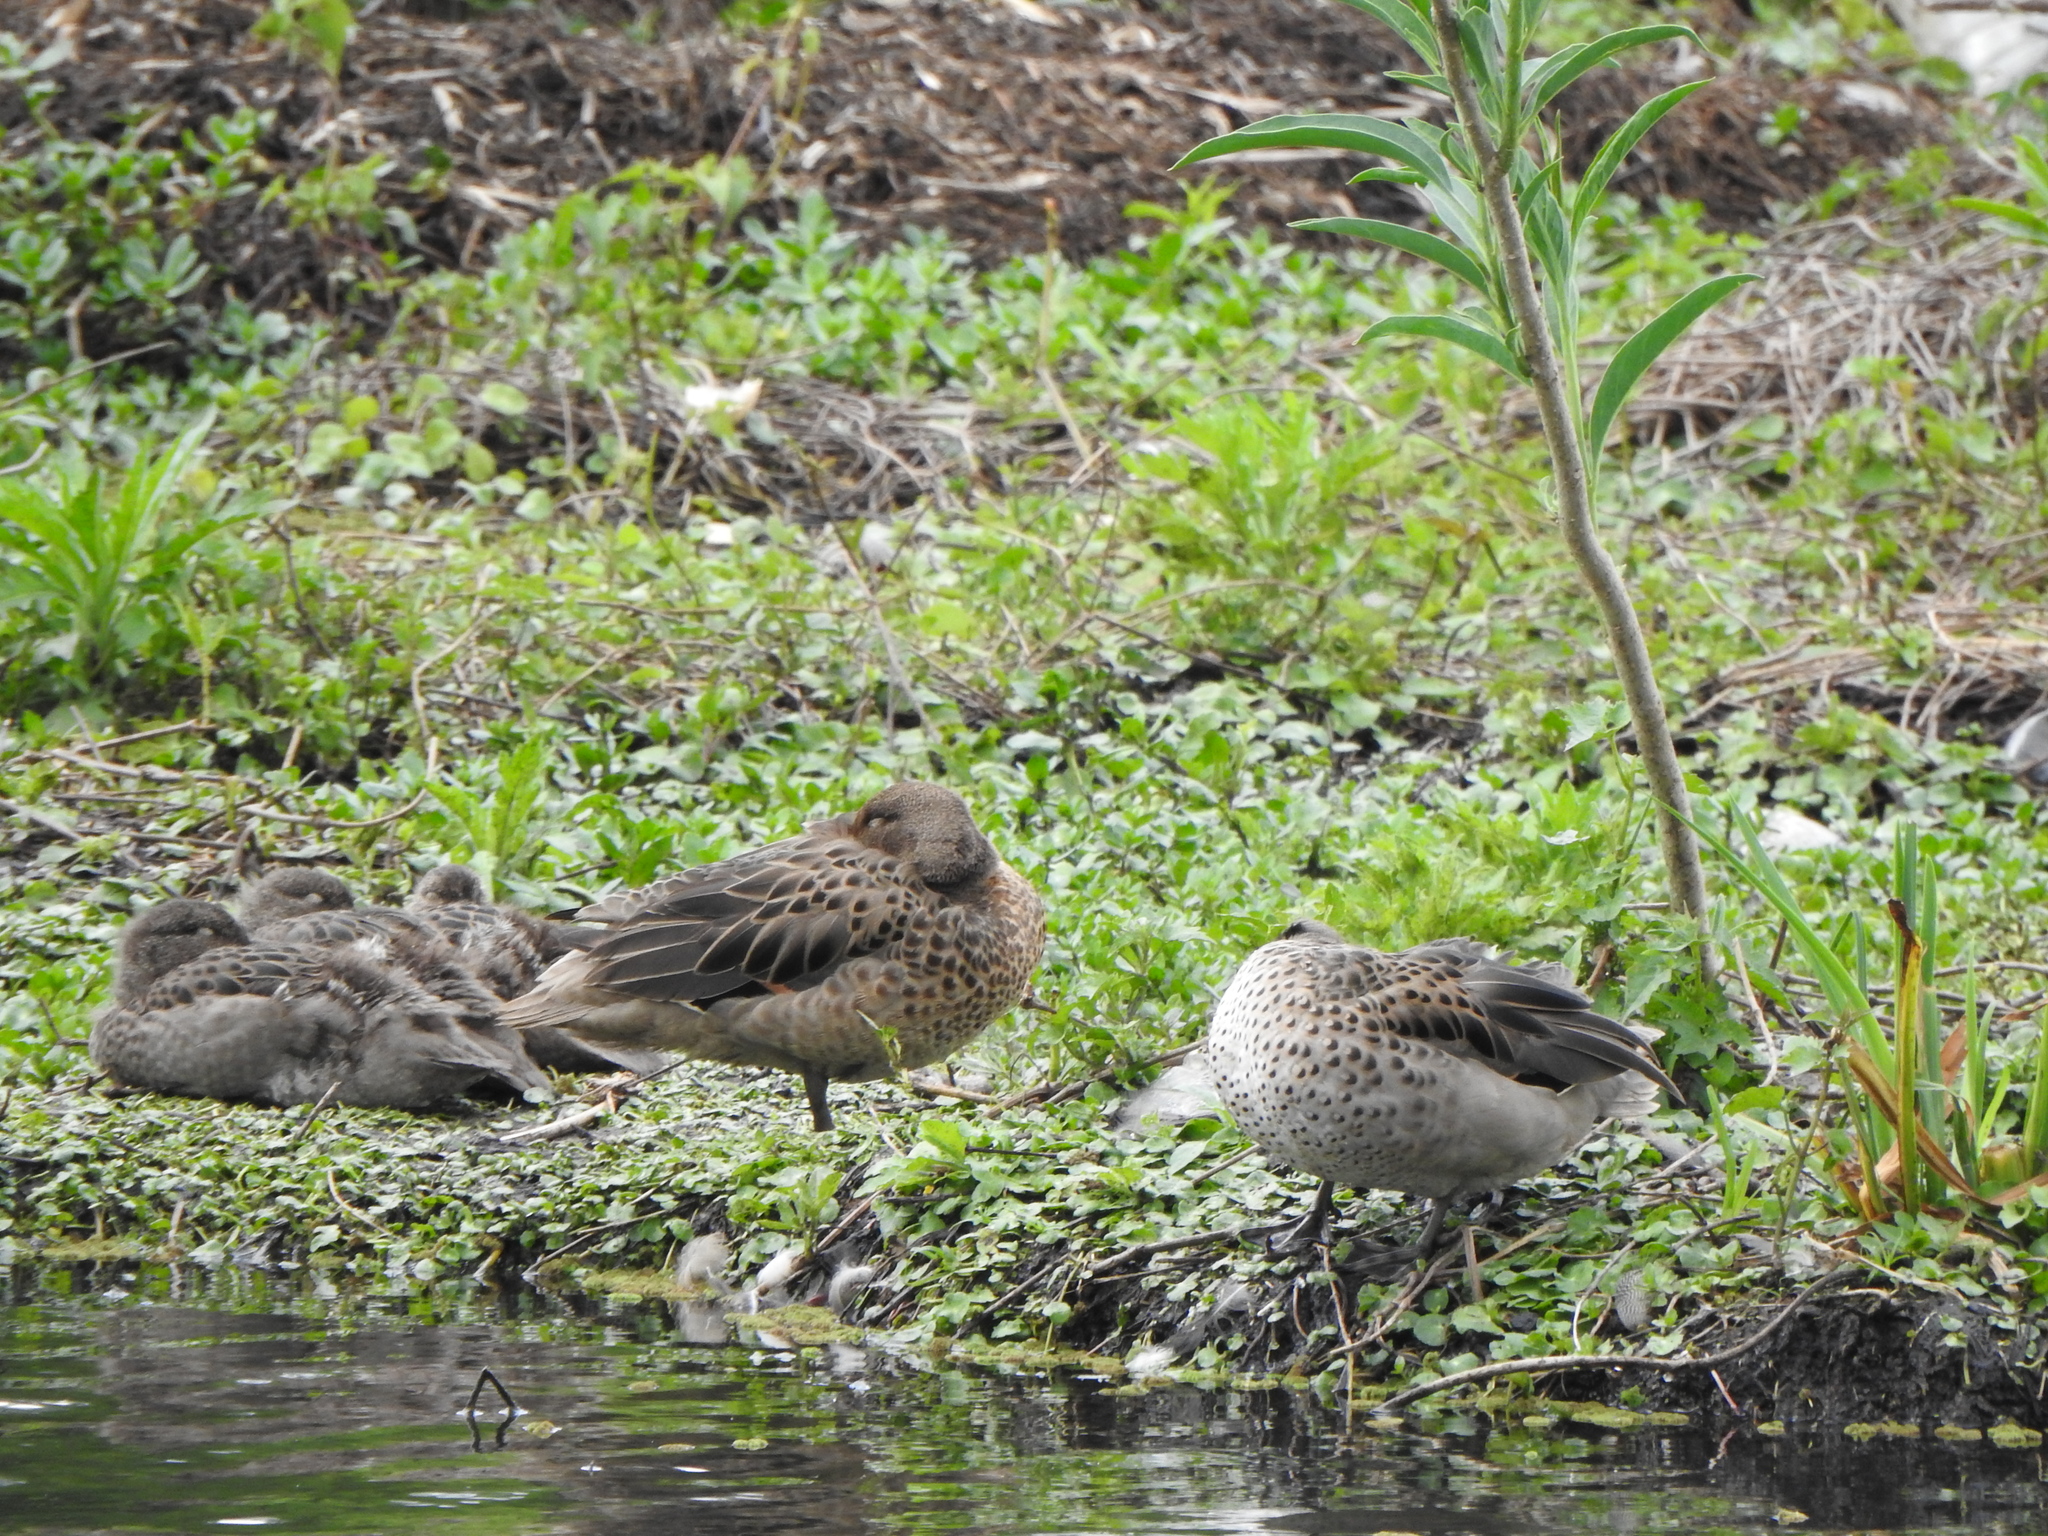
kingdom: Animalia
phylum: Chordata
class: Aves
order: Anseriformes
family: Anatidae
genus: Anas
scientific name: Anas flavirostris
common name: Yellow-billed teal
